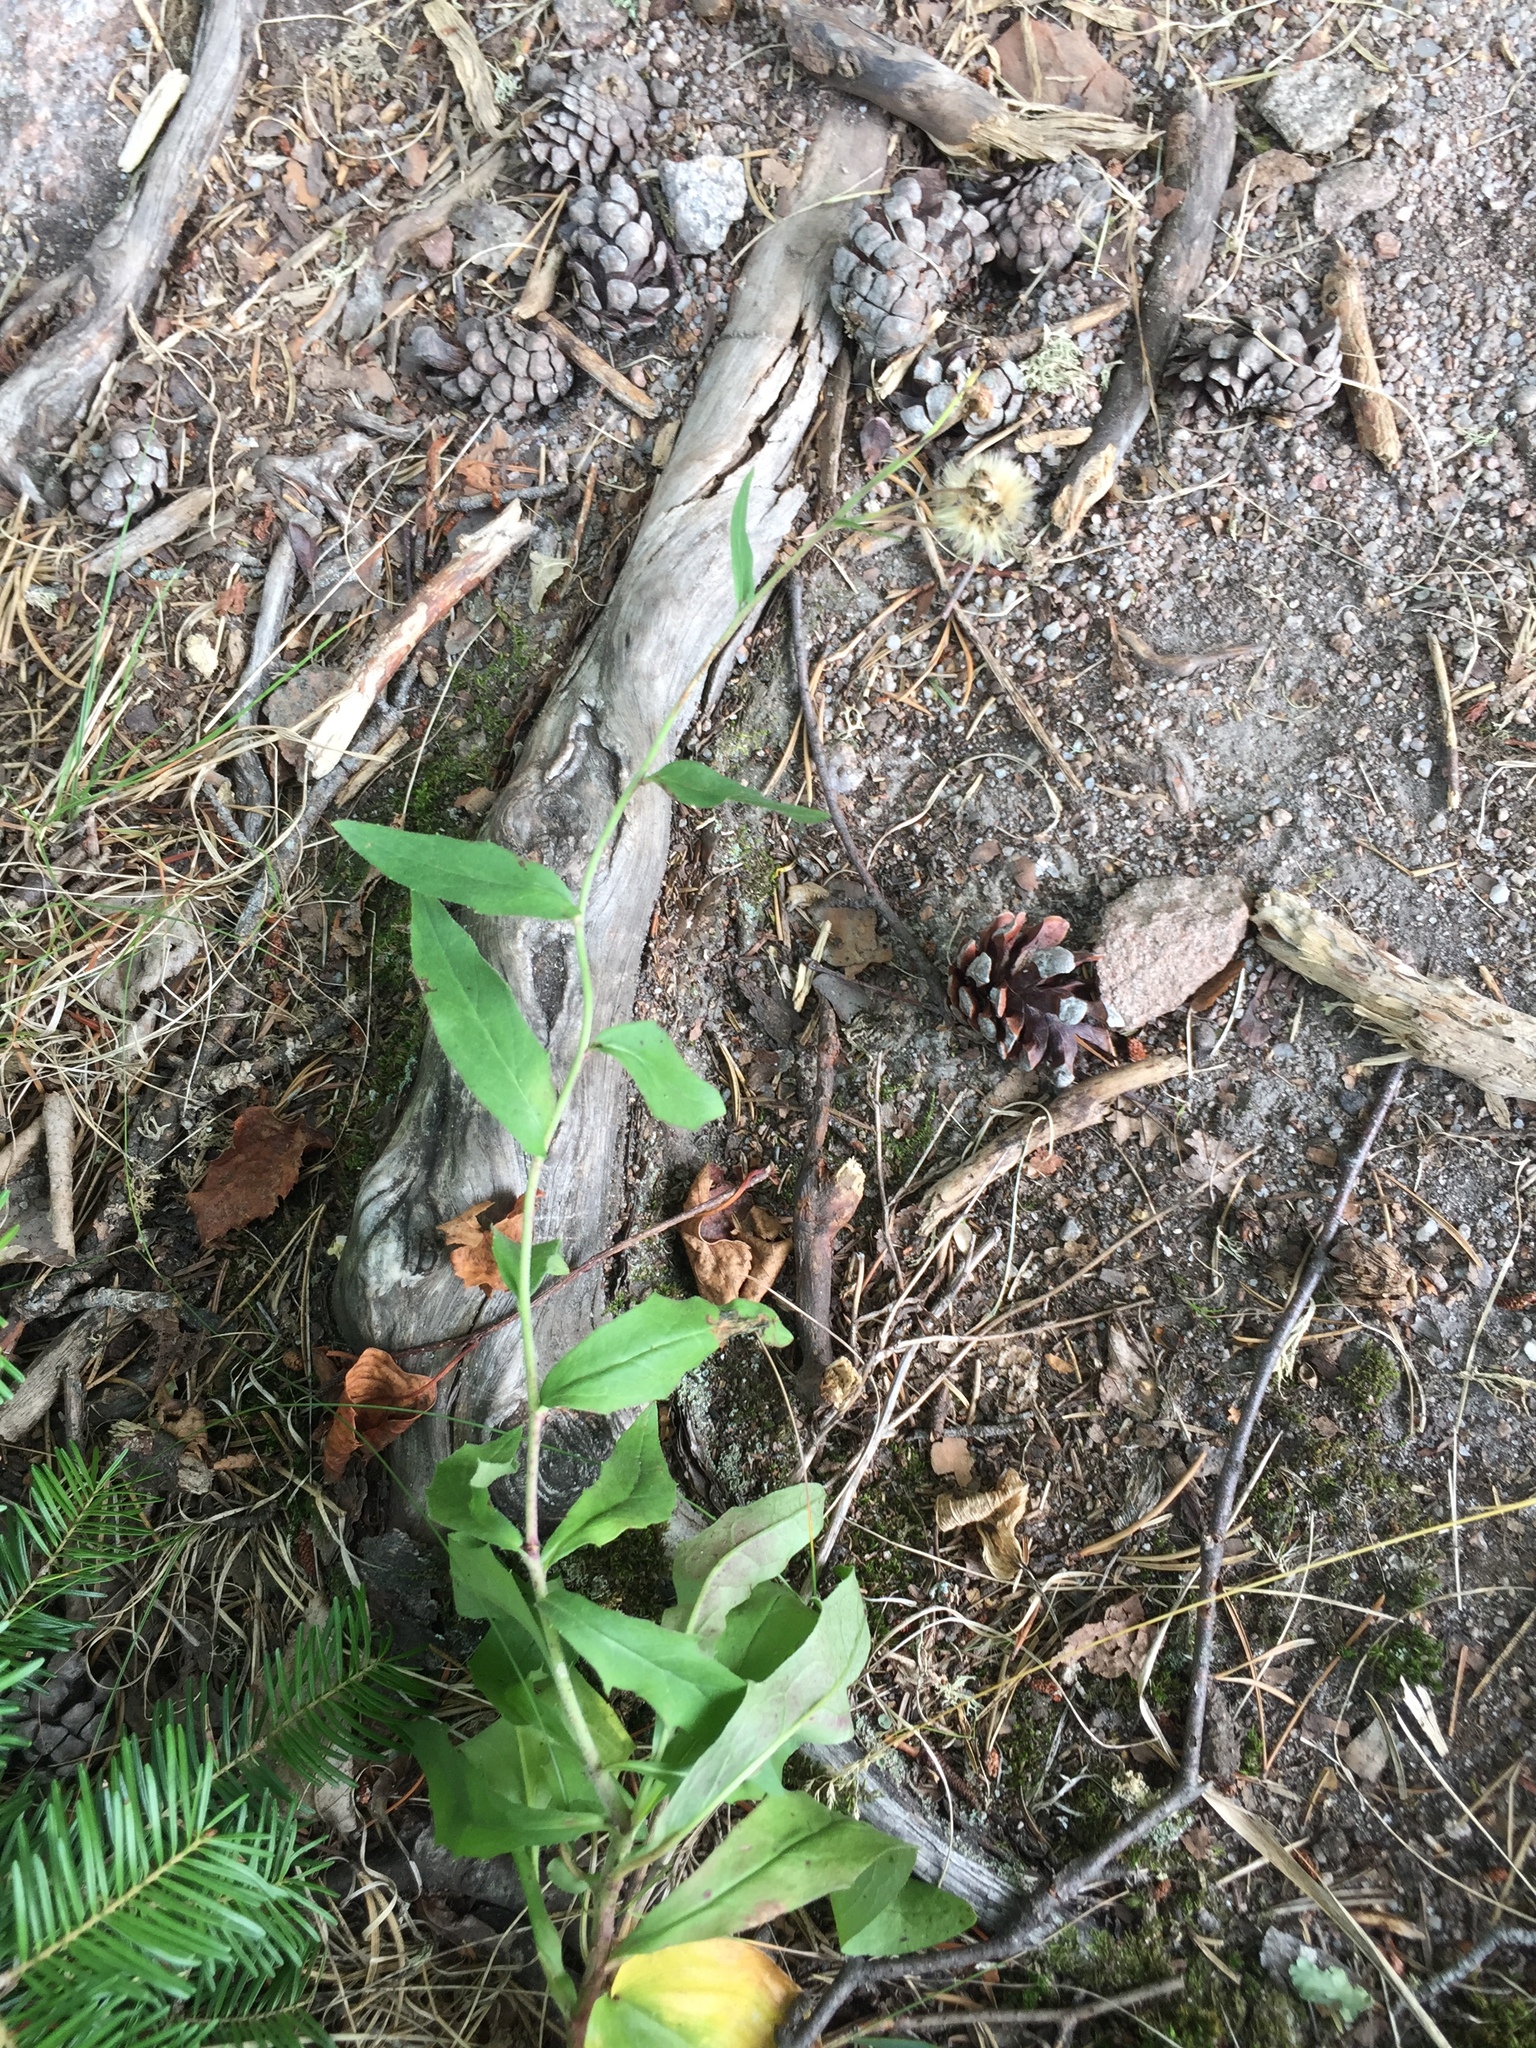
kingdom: Plantae
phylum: Tracheophyta
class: Magnoliopsida
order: Asterales
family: Asteraceae
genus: Hieracium
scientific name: Hieracium umbellatum
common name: Northern hawkweed
